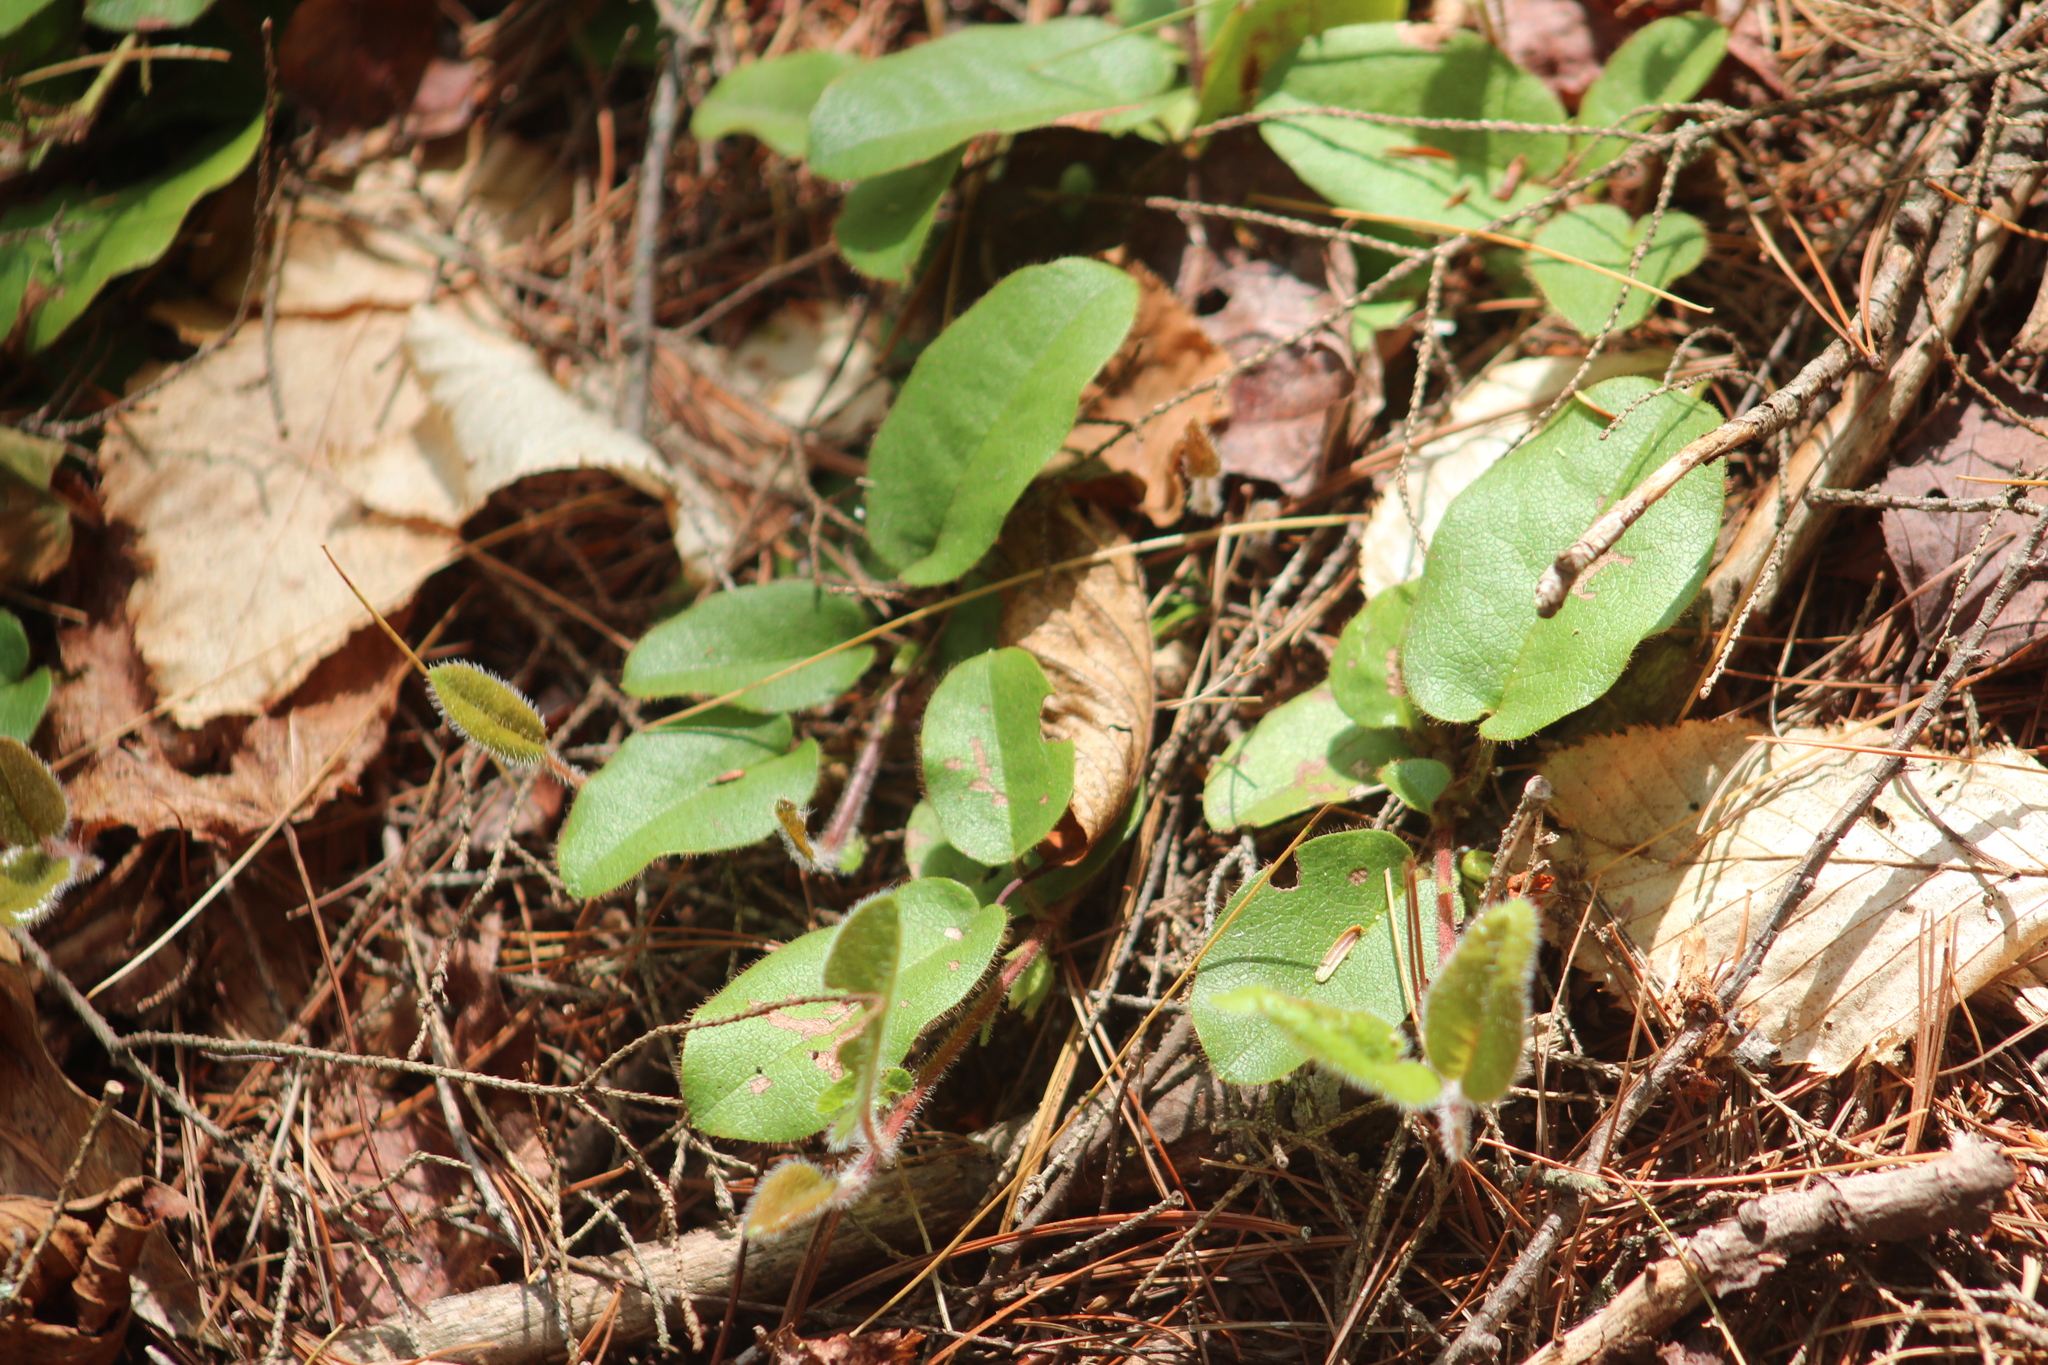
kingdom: Plantae
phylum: Tracheophyta
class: Magnoliopsida
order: Ericales
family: Ericaceae
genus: Epigaea
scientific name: Epigaea repens
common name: Gravelroot
